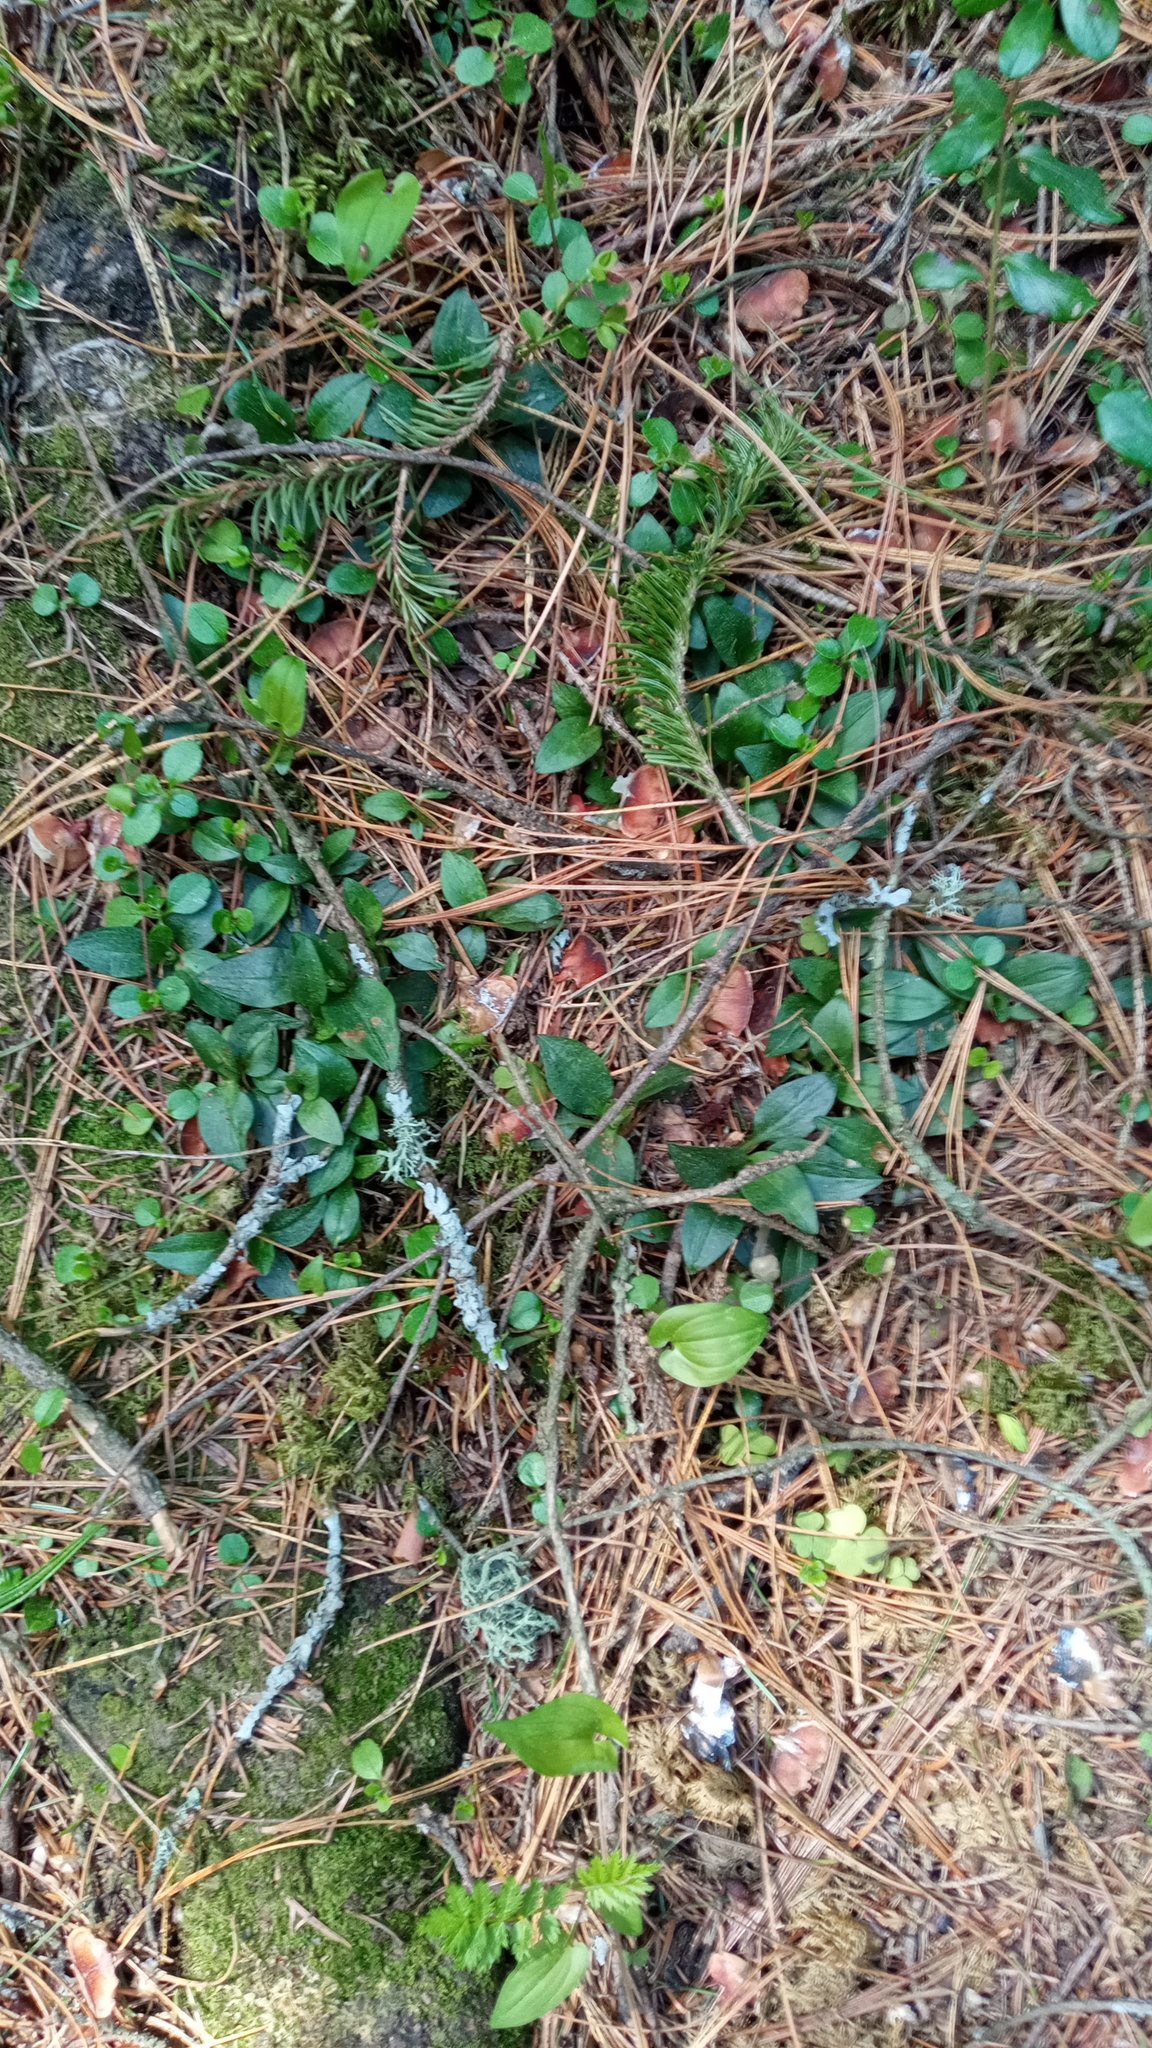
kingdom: Plantae
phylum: Tracheophyta
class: Liliopsida
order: Asparagales
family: Orchidaceae
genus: Goodyera
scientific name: Goodyera repens
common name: Creeping lady's-tresses
